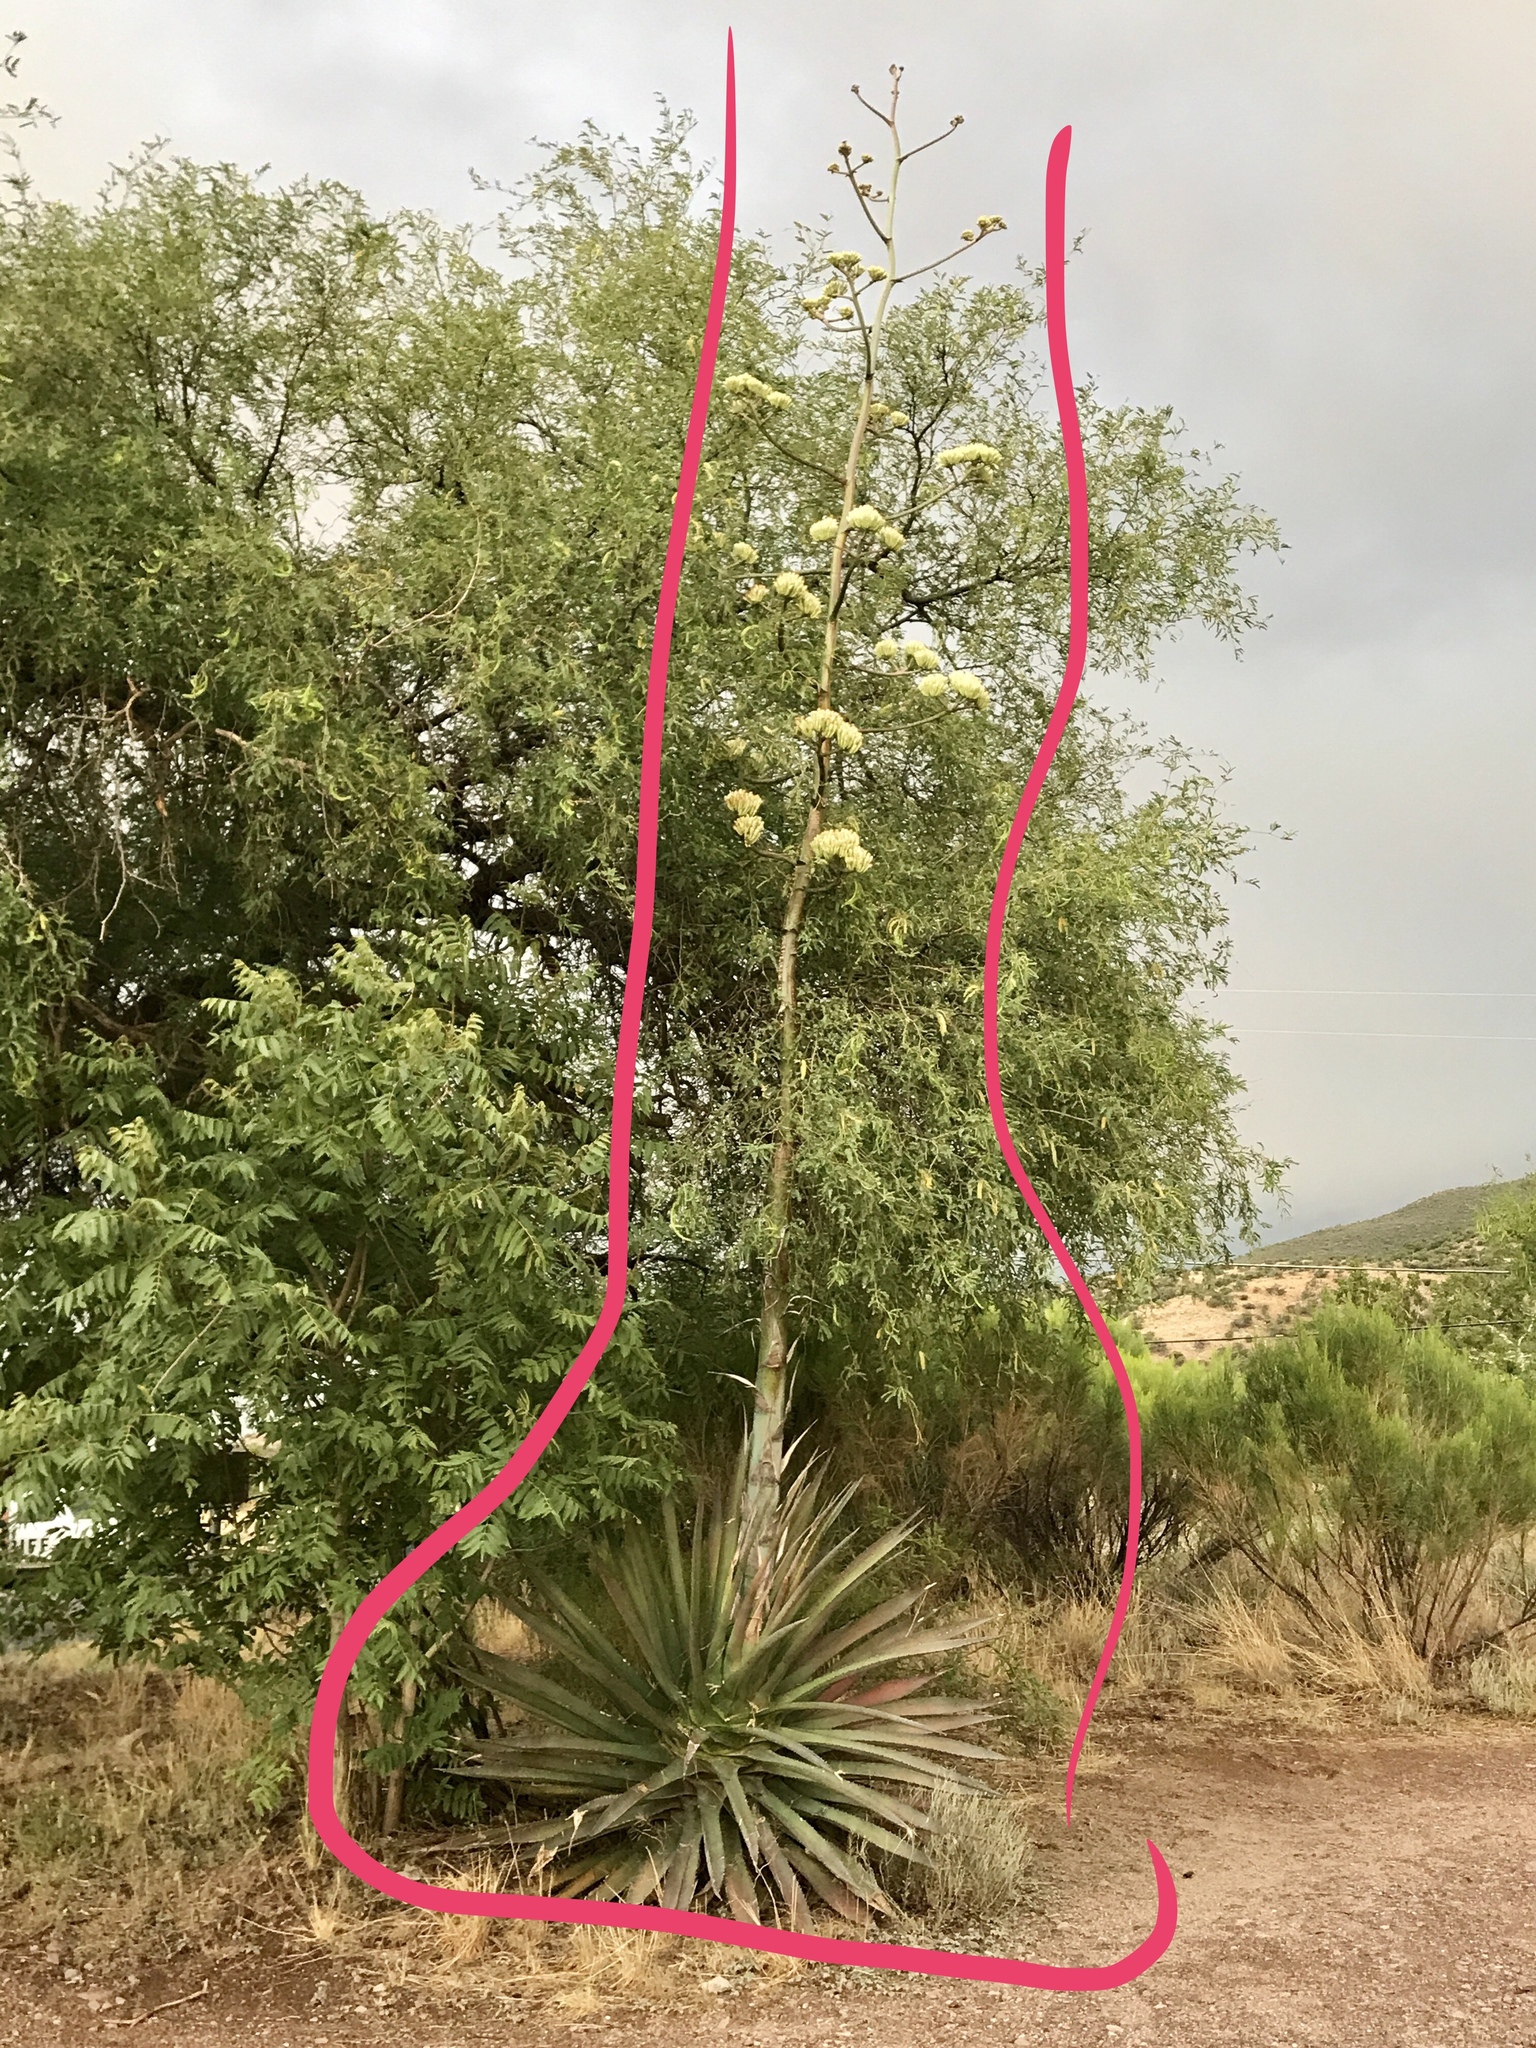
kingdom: Plantae
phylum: Tracheophyta
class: Liliopsida
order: Asparagales
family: Asparagaceae
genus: Agave
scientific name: Agave palmeri
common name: Palmer agave
